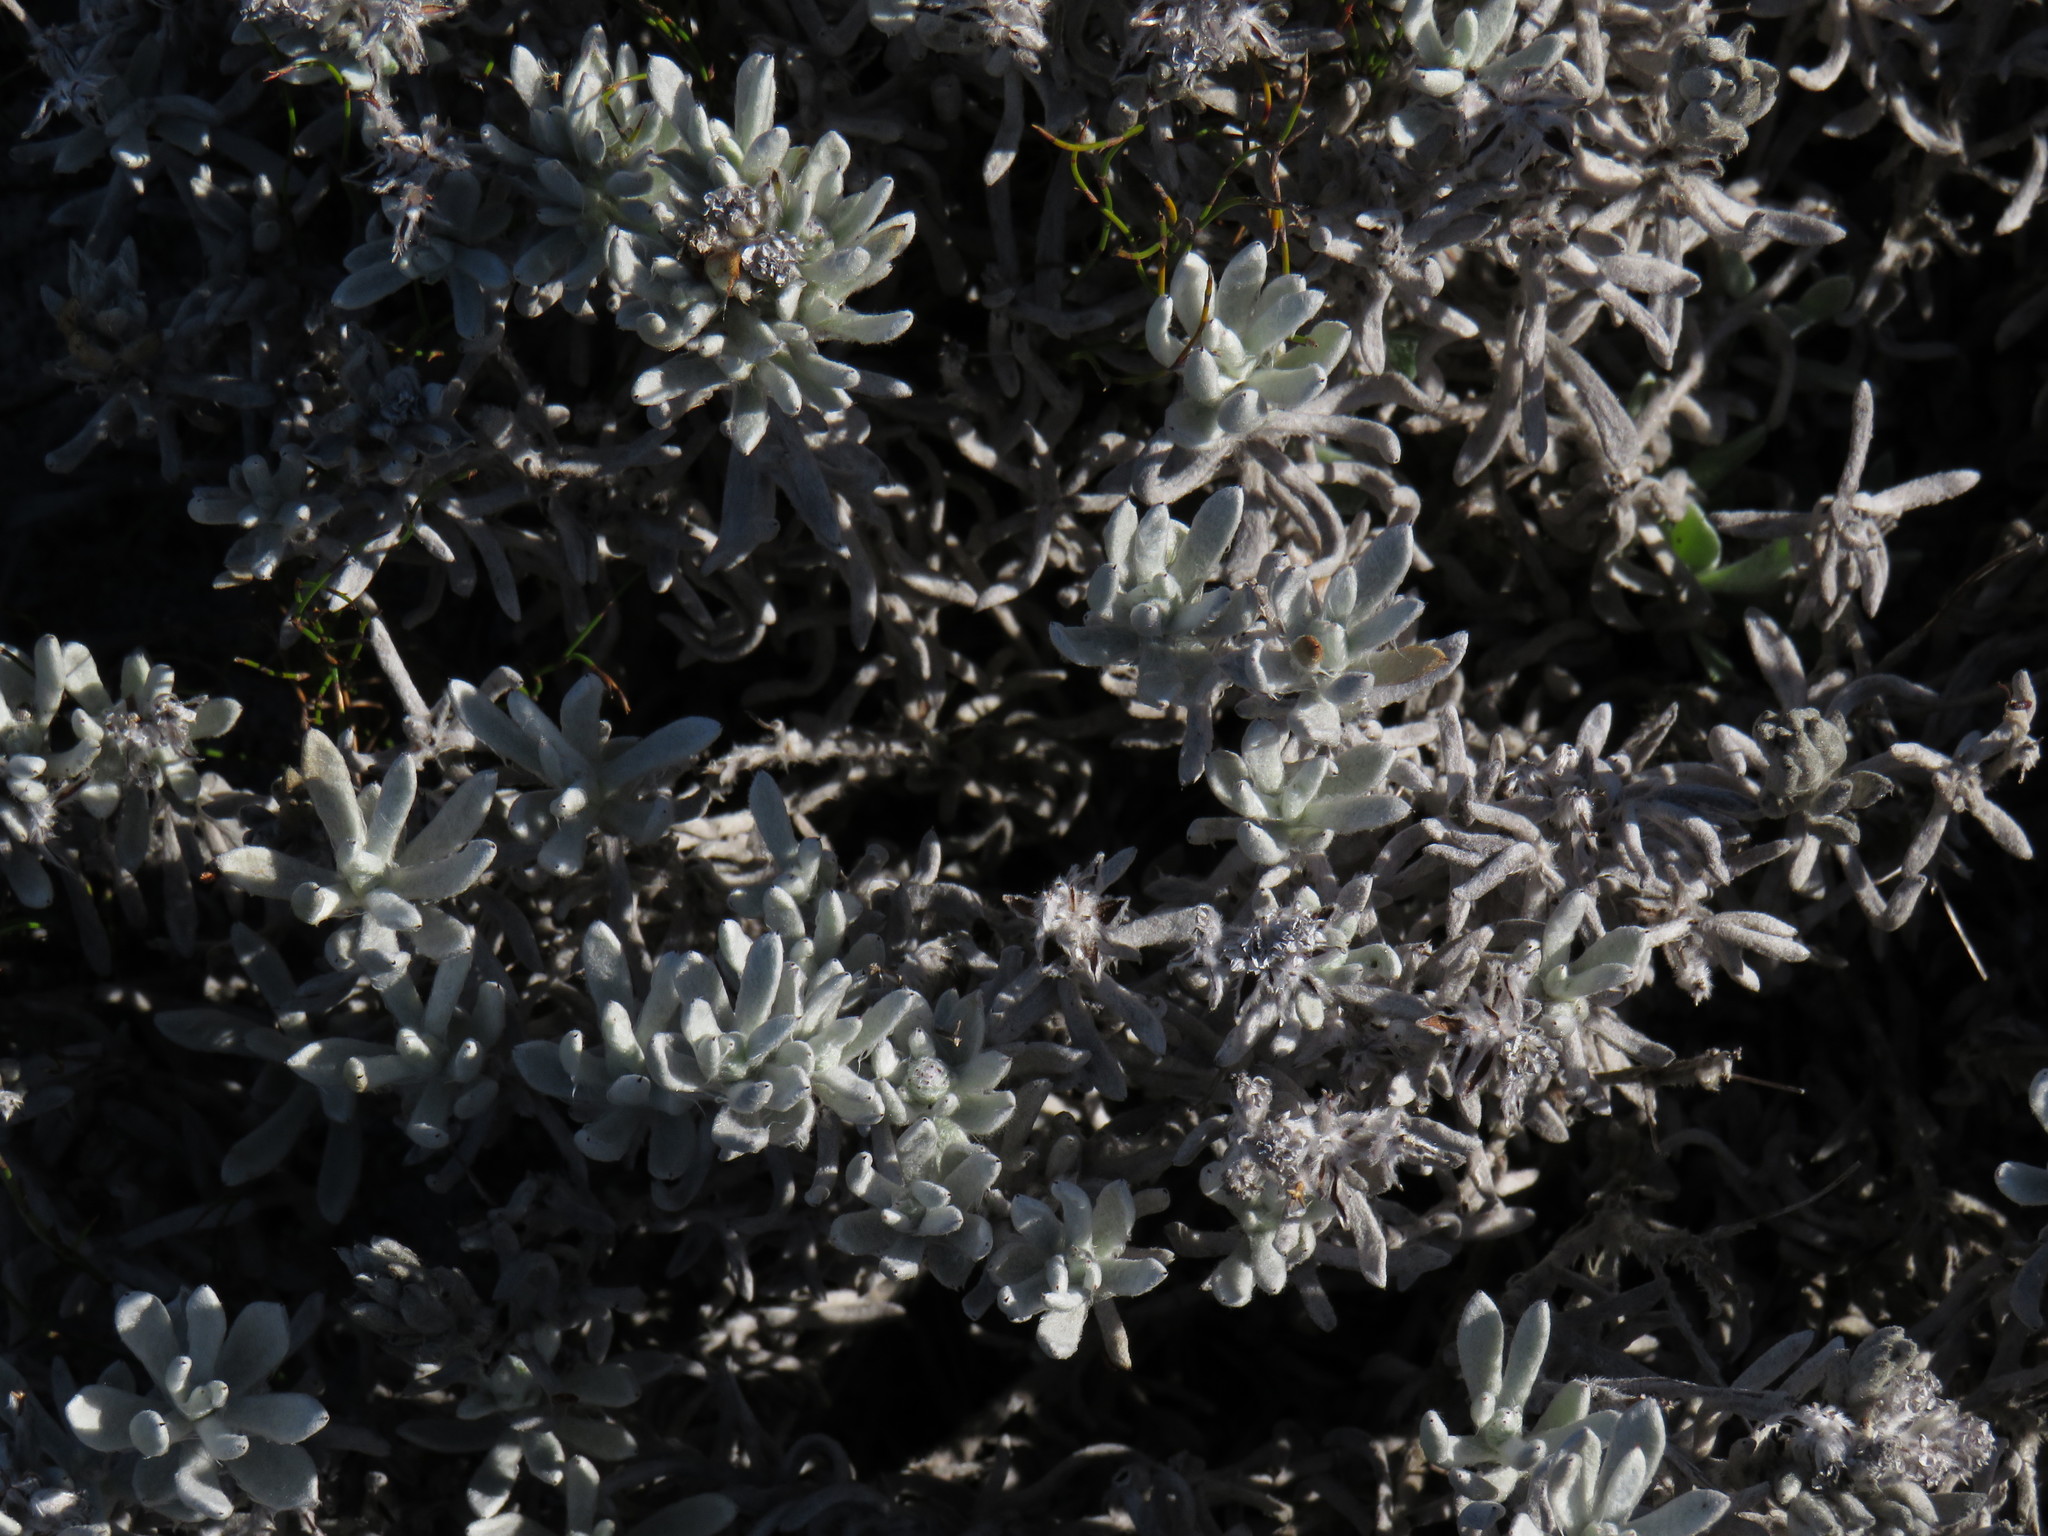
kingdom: Plantae
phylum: Tracheophyta
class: Magnoliopsida
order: Asterales
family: Asteraceae
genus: Petalacte
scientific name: Petalacte coronata
